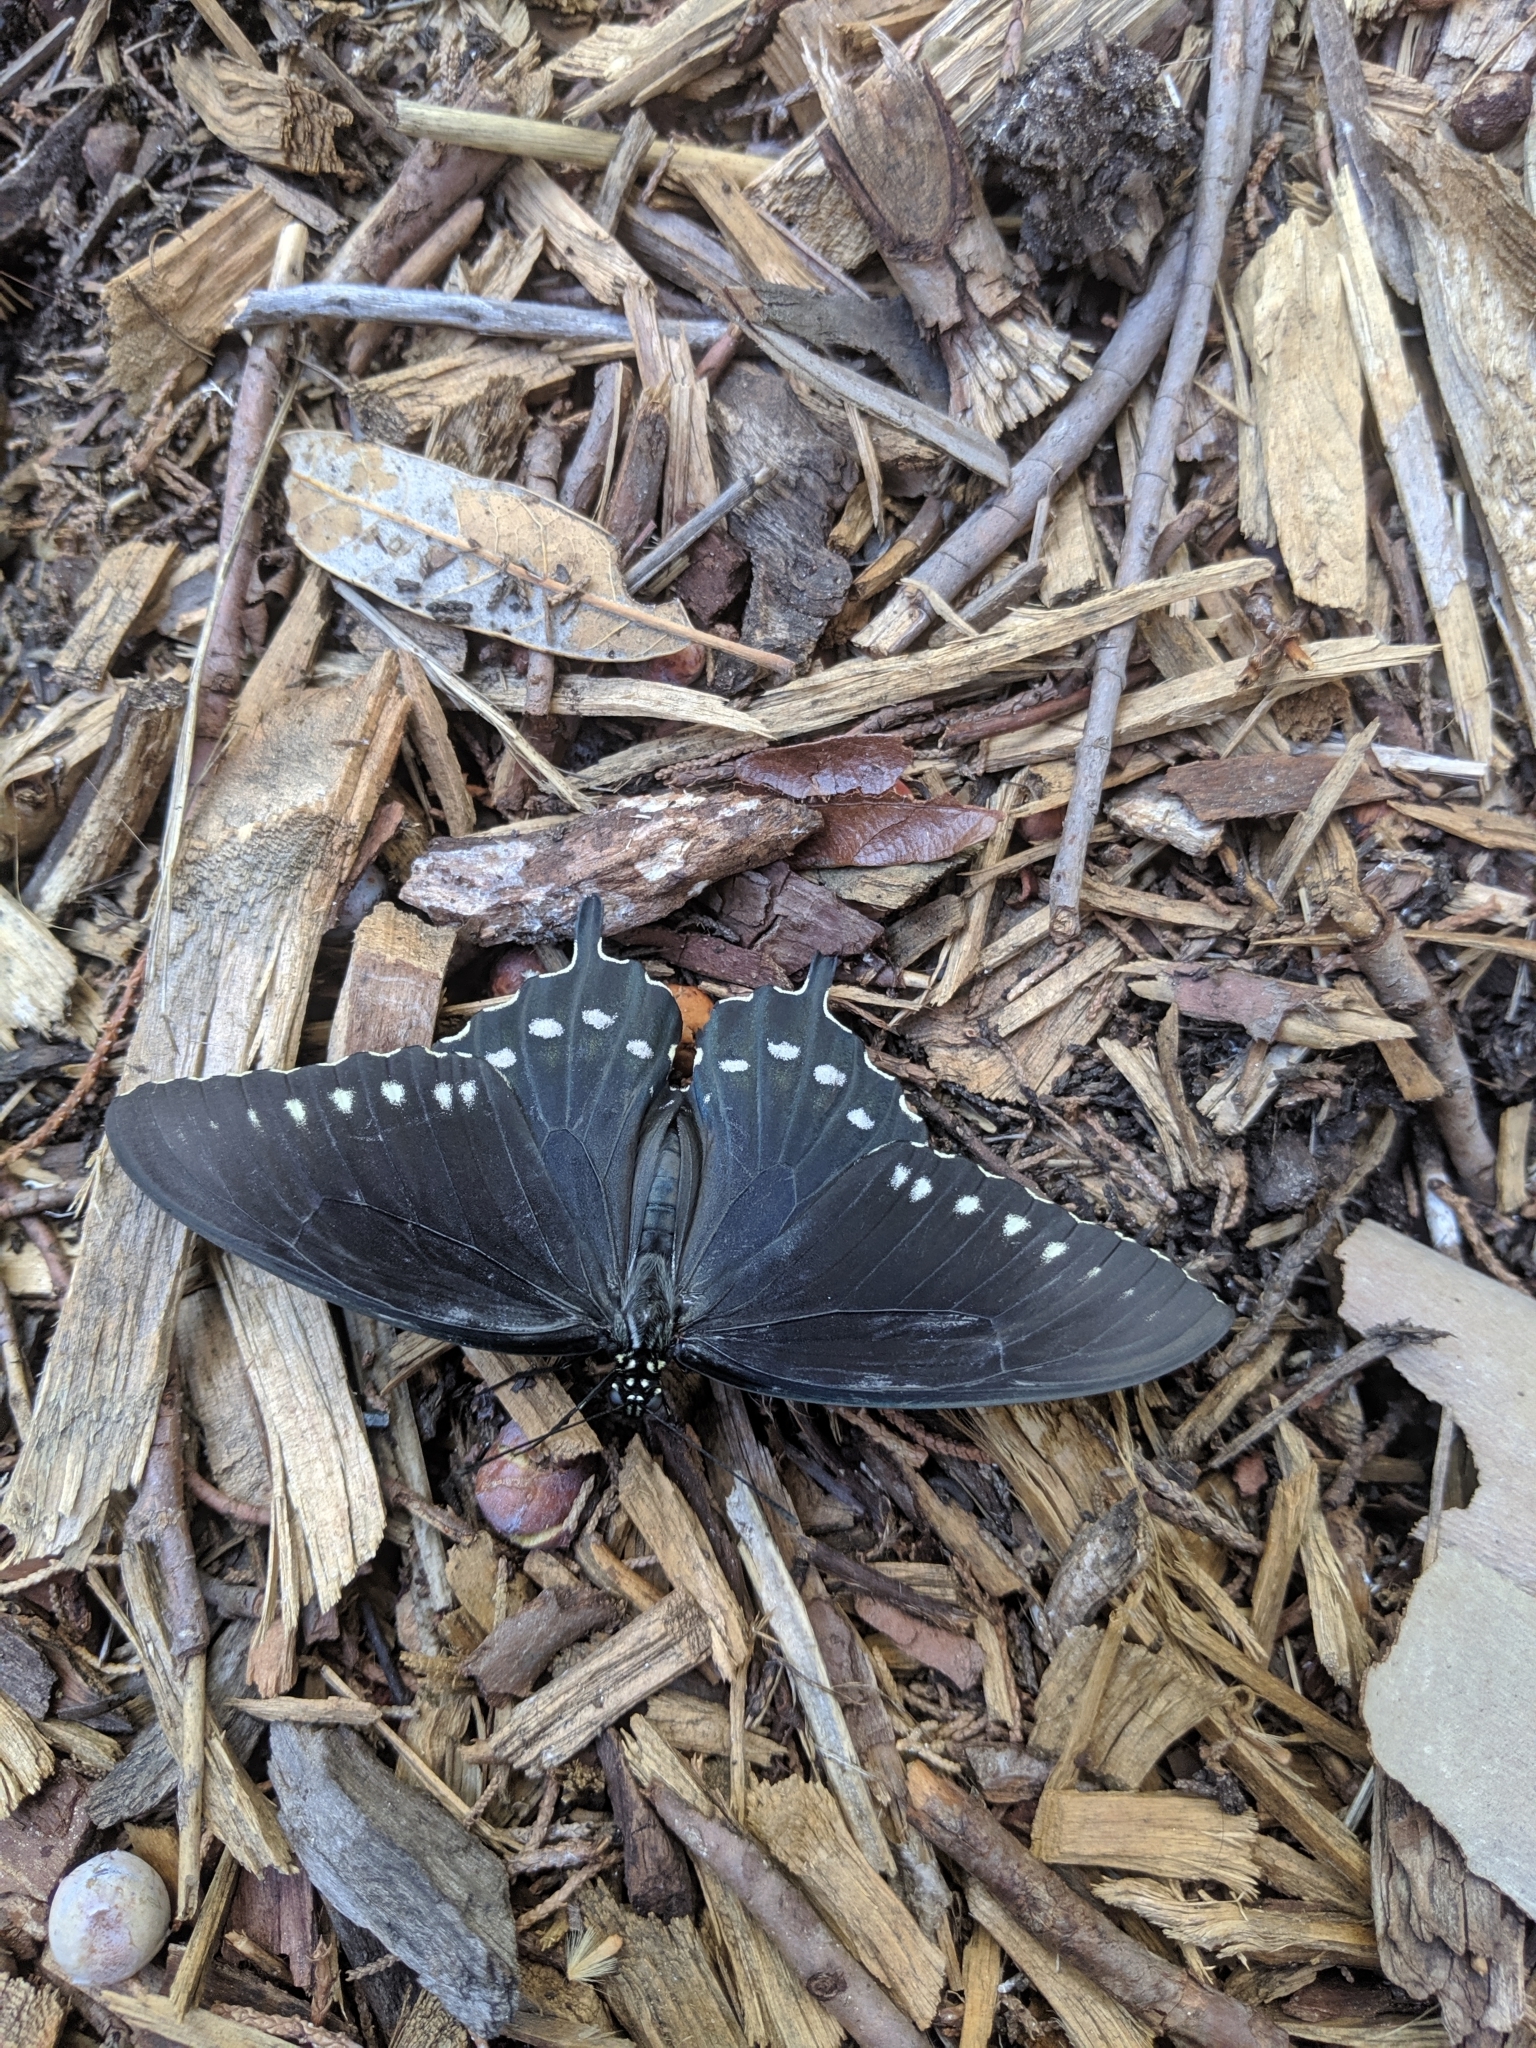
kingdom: Animalia
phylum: Arthropoda
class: Insecta
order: Lepidoptera
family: Papilionidae
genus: Battus
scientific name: Battus philenor
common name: Pipevine swallowtail
